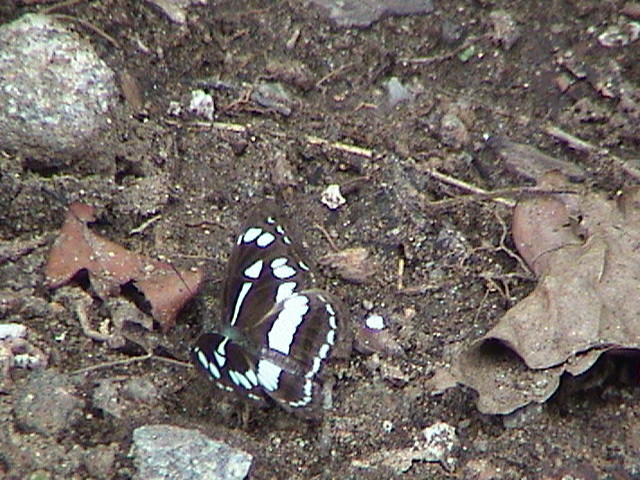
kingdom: Animalia
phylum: Arthropoda
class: Insecta
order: Lepidoptera
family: Nymphalidae
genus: Neptis
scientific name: Neptis jumbah
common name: Chestnut-streaked sailer
